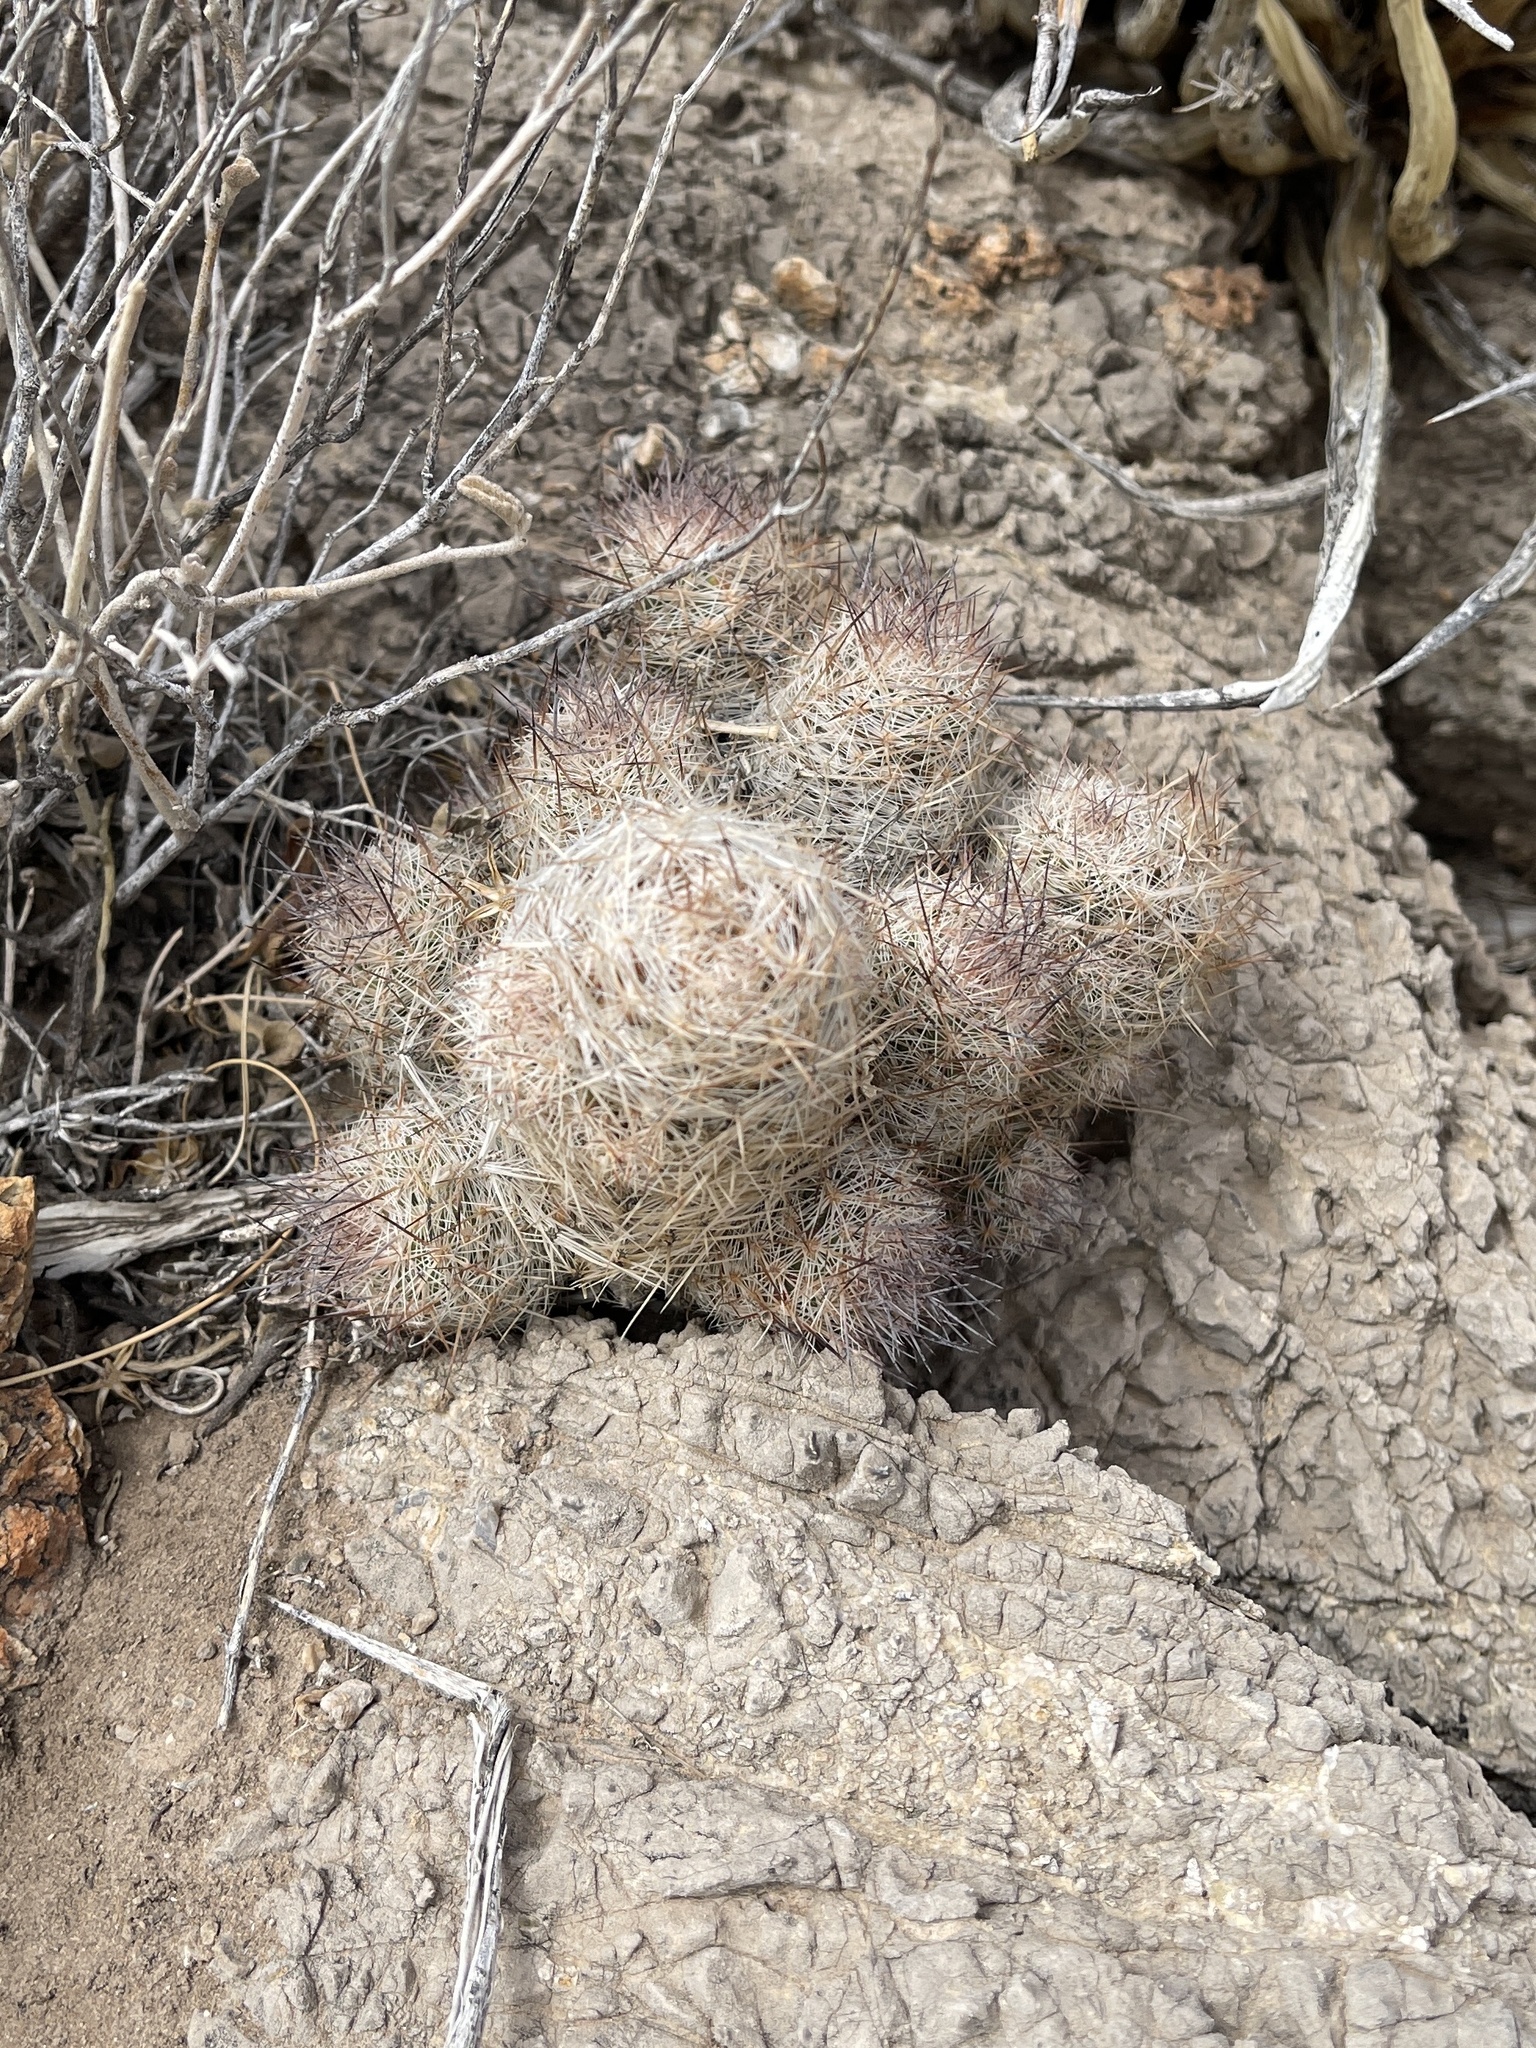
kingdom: Plantae
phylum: Tracheophyta
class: Magnoliopsida
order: Caryophyllales
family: Cactaceae
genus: Pelecyphora
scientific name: Pelecyphora tuberculosa
